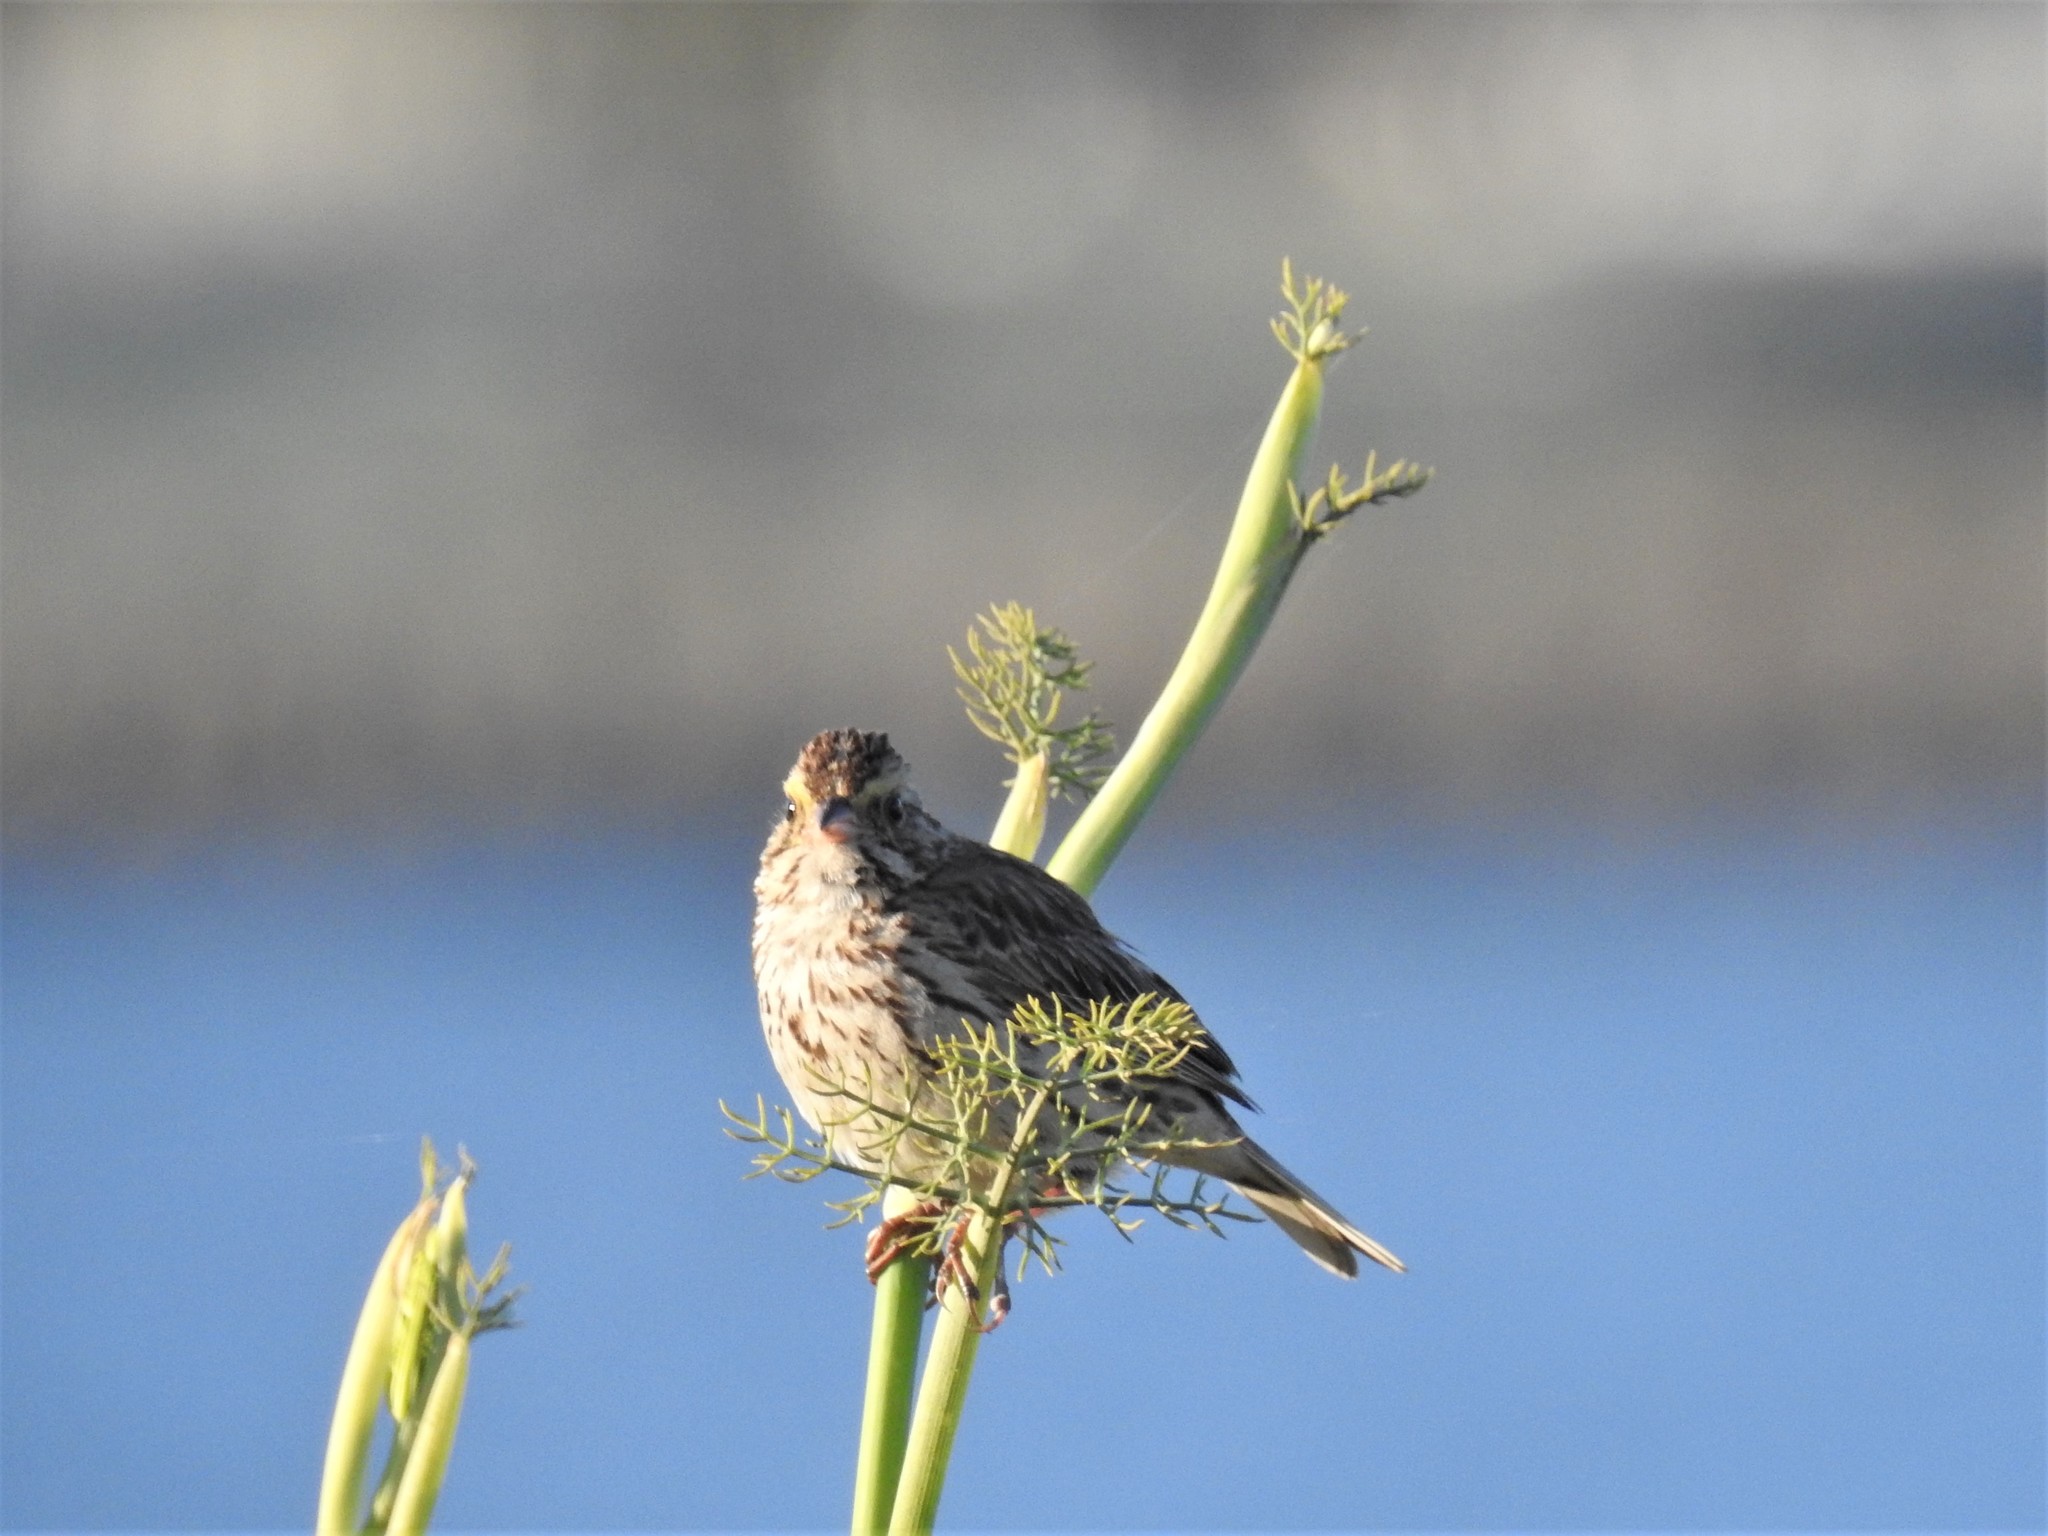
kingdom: Animalia
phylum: Chordata
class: Aves
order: Passeriformes
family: Passerellidae
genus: Passerculus
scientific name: Passerculus sandwichensis
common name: Savannah sparrow
